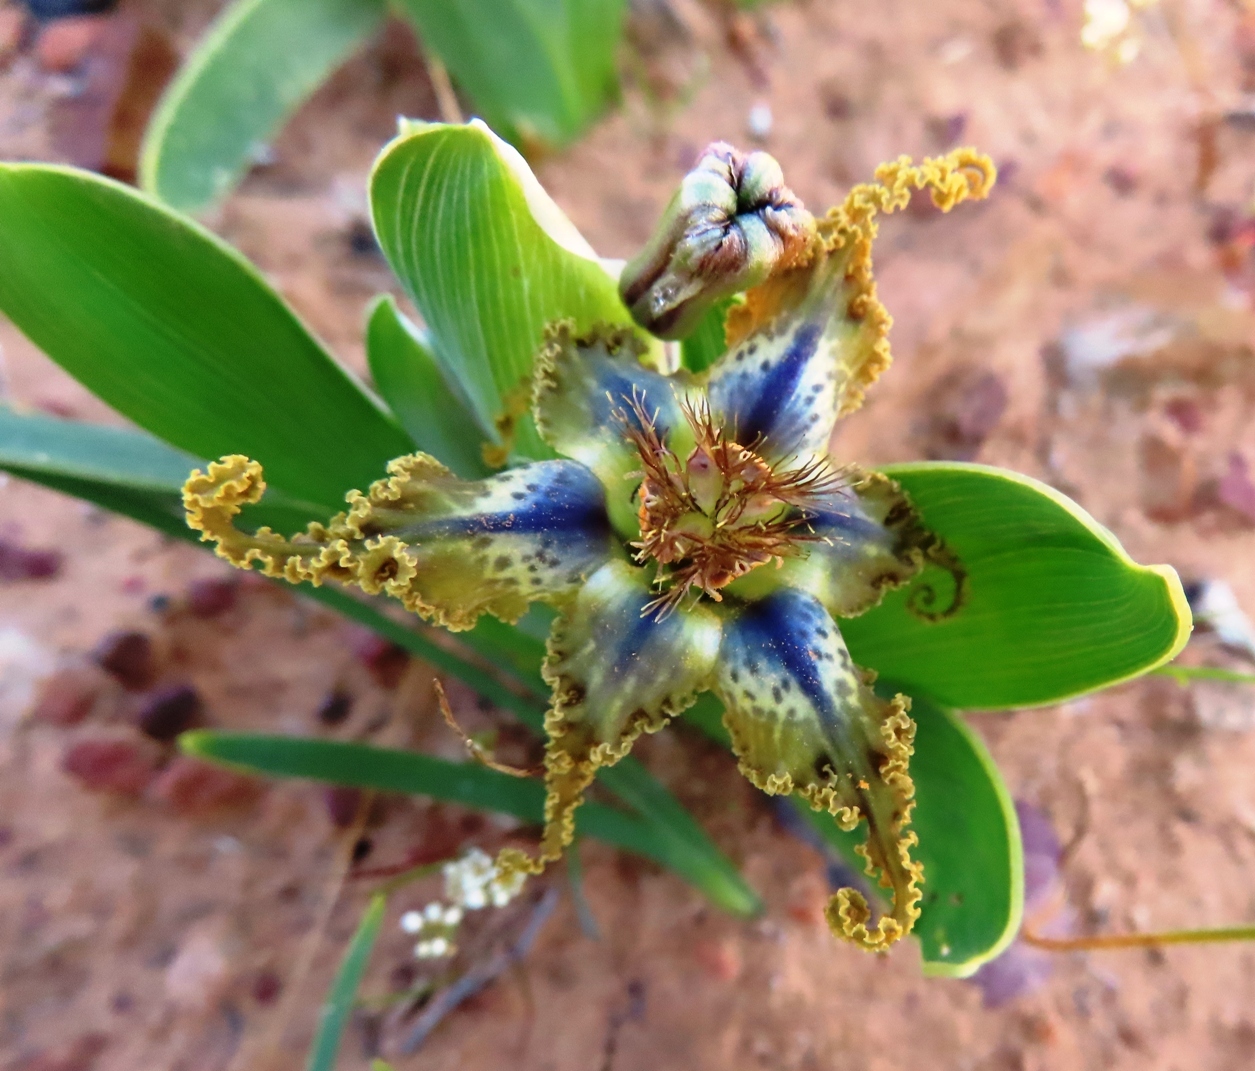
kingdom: Plantae
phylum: Tracheophyta
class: Liliopsida
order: Asparagales
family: Iridaceae
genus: Ferraria
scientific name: Ferraria uncinata
